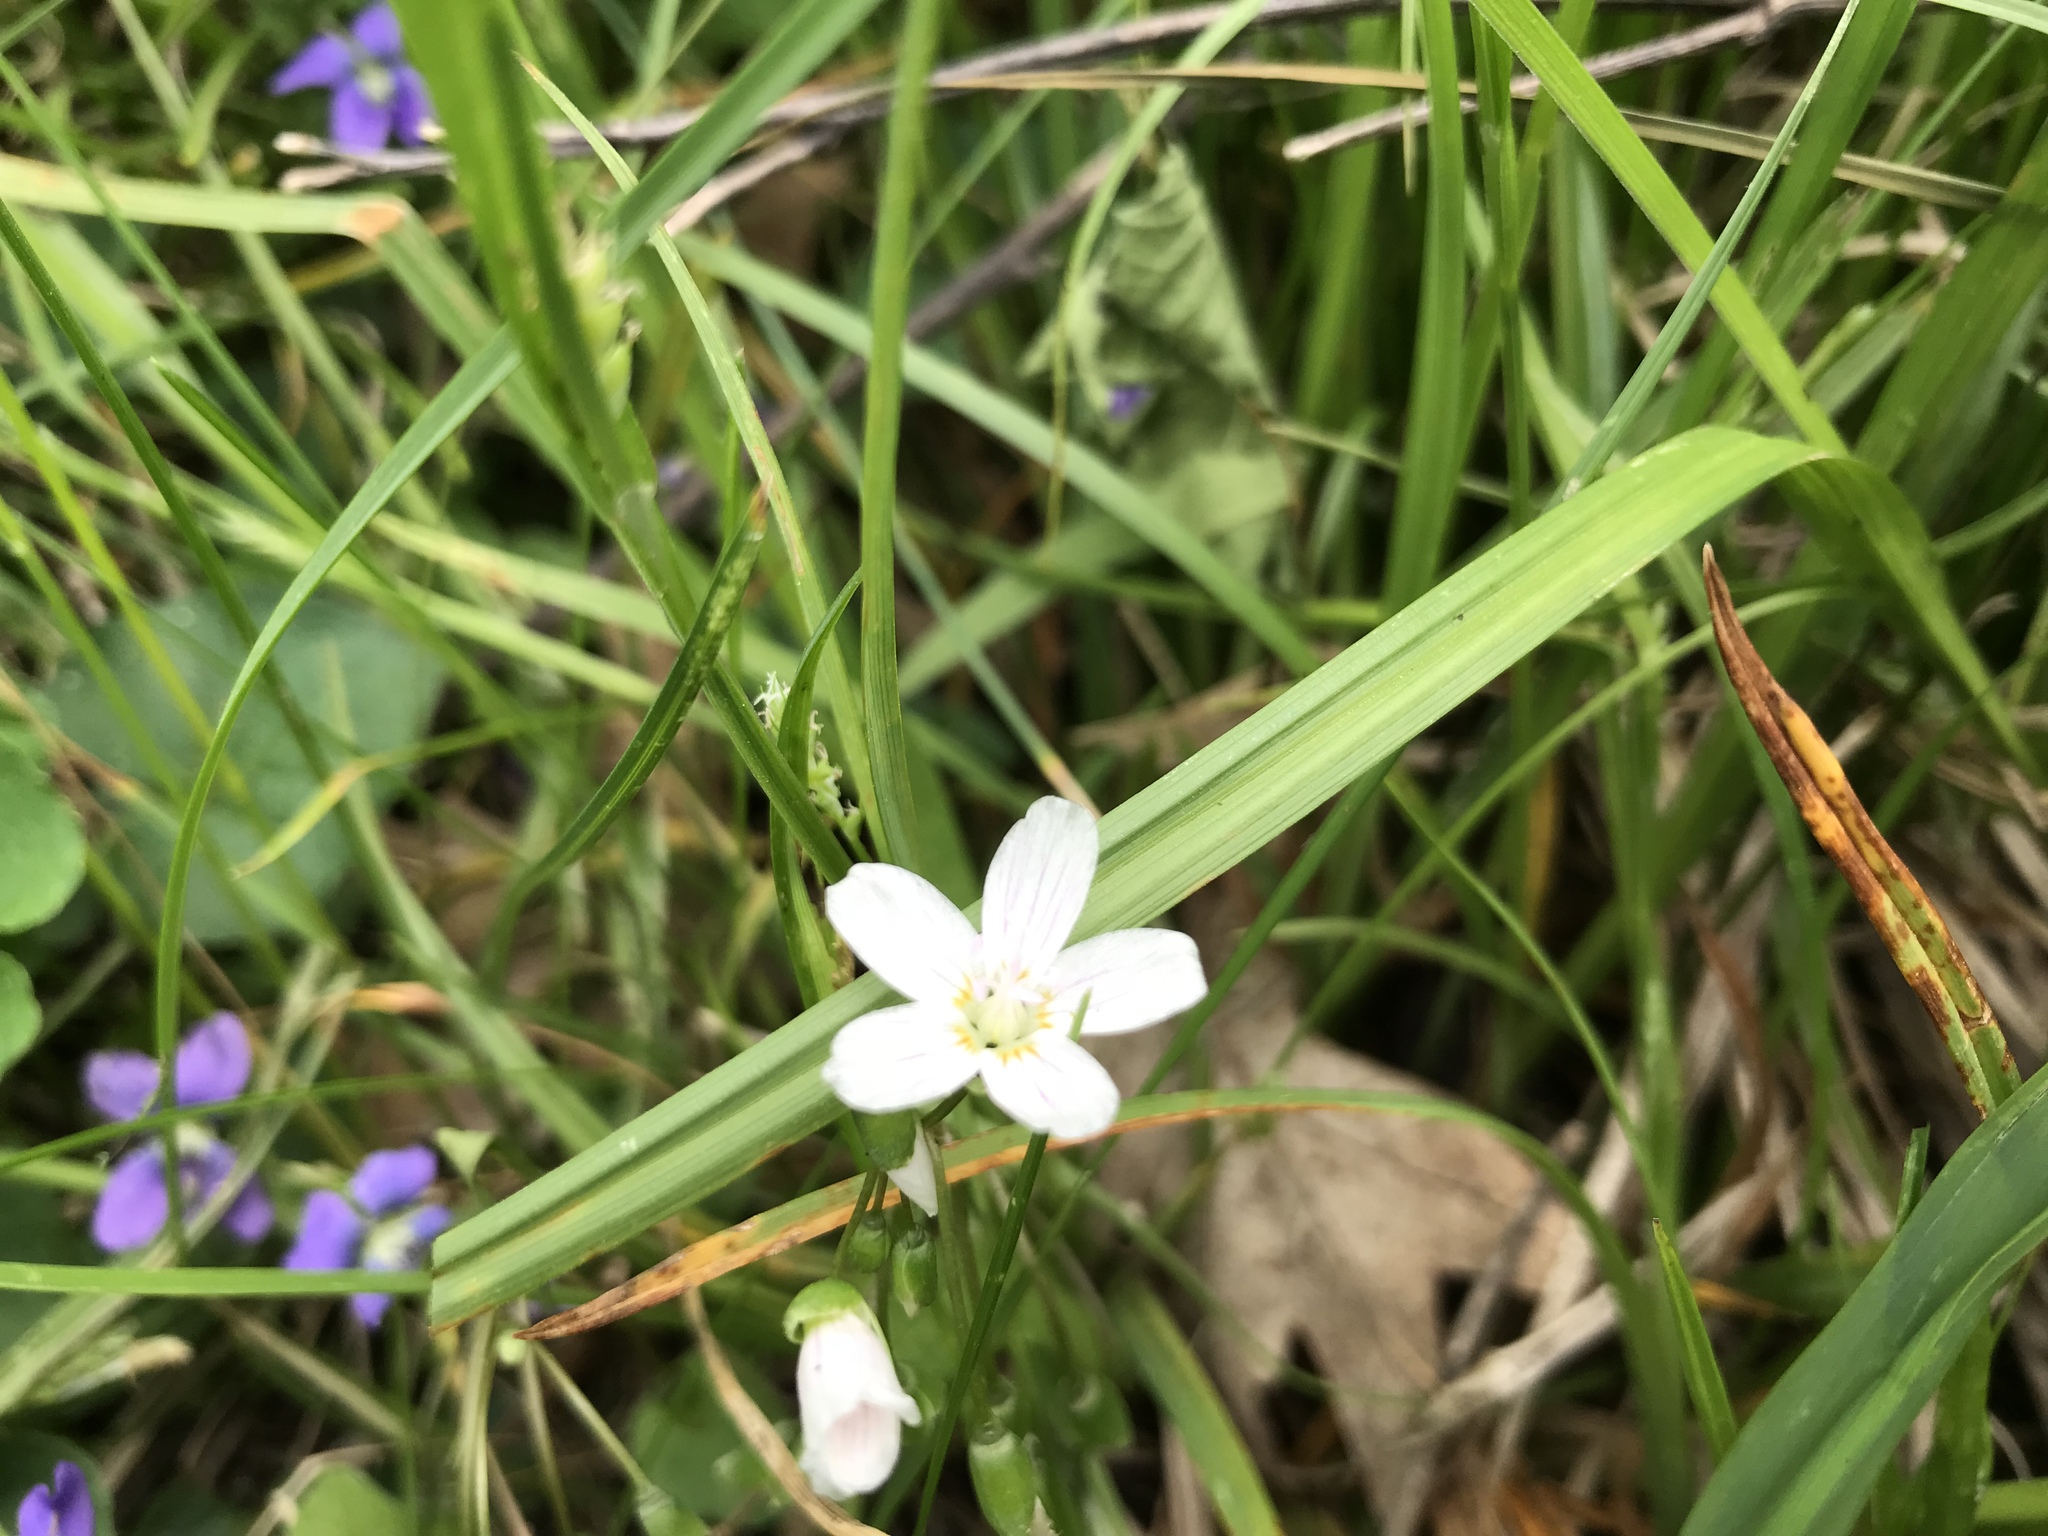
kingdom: Plantae
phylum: Tracheophyta
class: Magnoliopsida
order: Caryophyllales
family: Montiaceae
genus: Claytonia
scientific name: Claytonia virginica
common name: Virginia springbeauty
